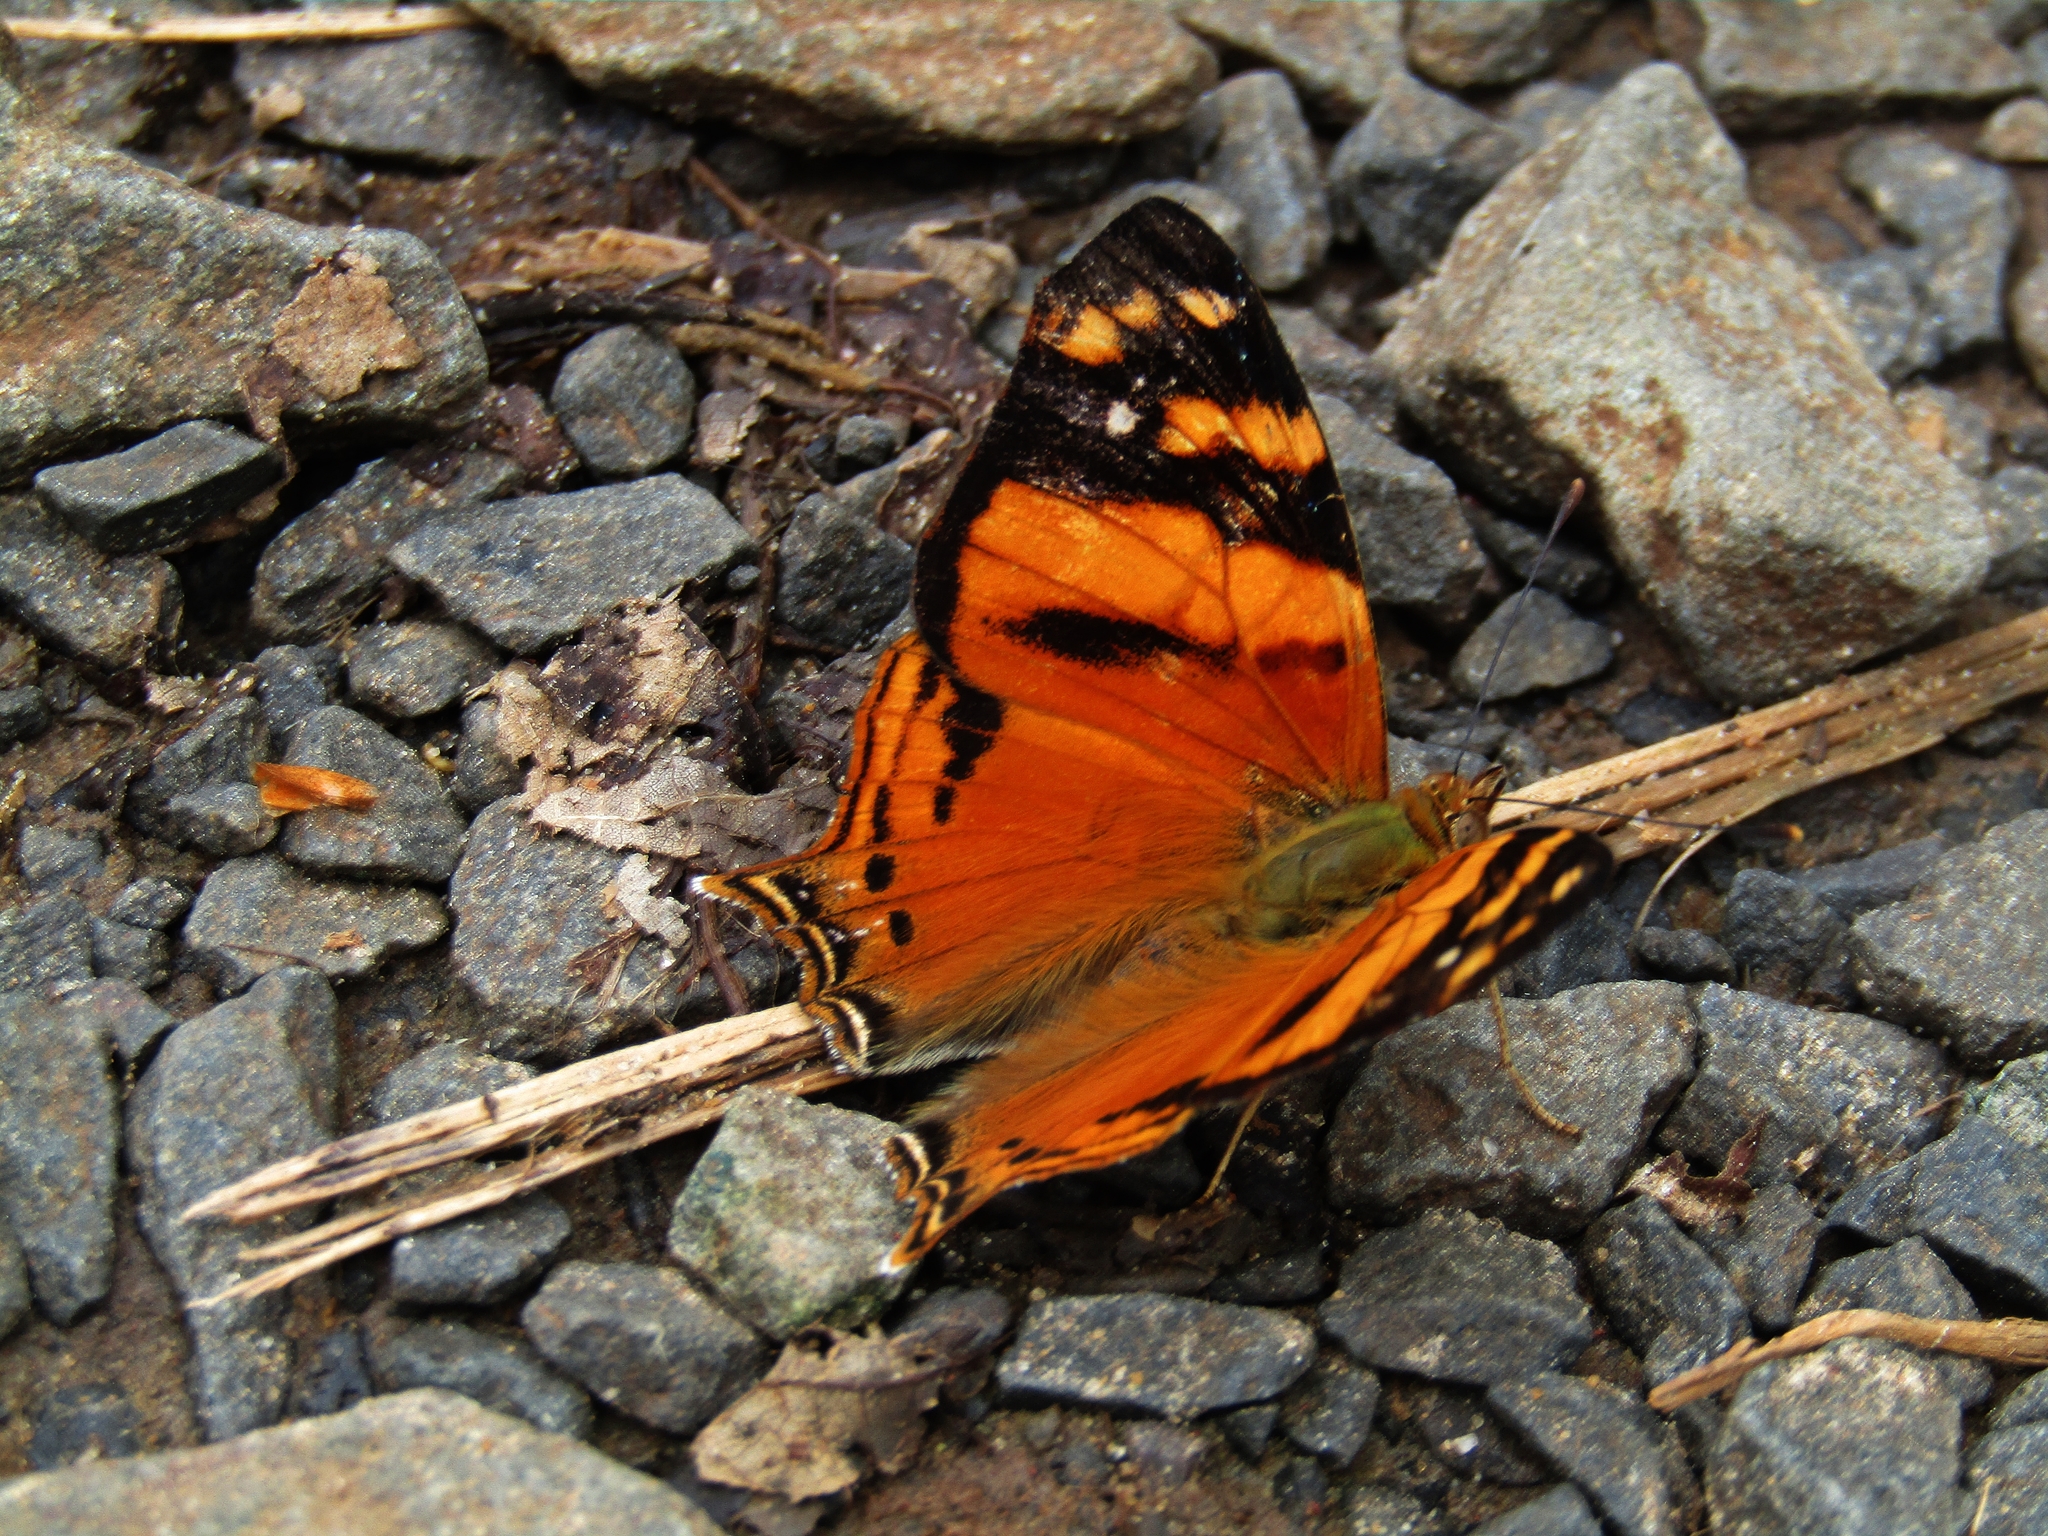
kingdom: Animalia
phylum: Arthropoda
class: Insecta
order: Lepidoptera
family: Nymphalidae
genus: Hypanartia
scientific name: Hypanartia lethe
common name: Orange mapwing
